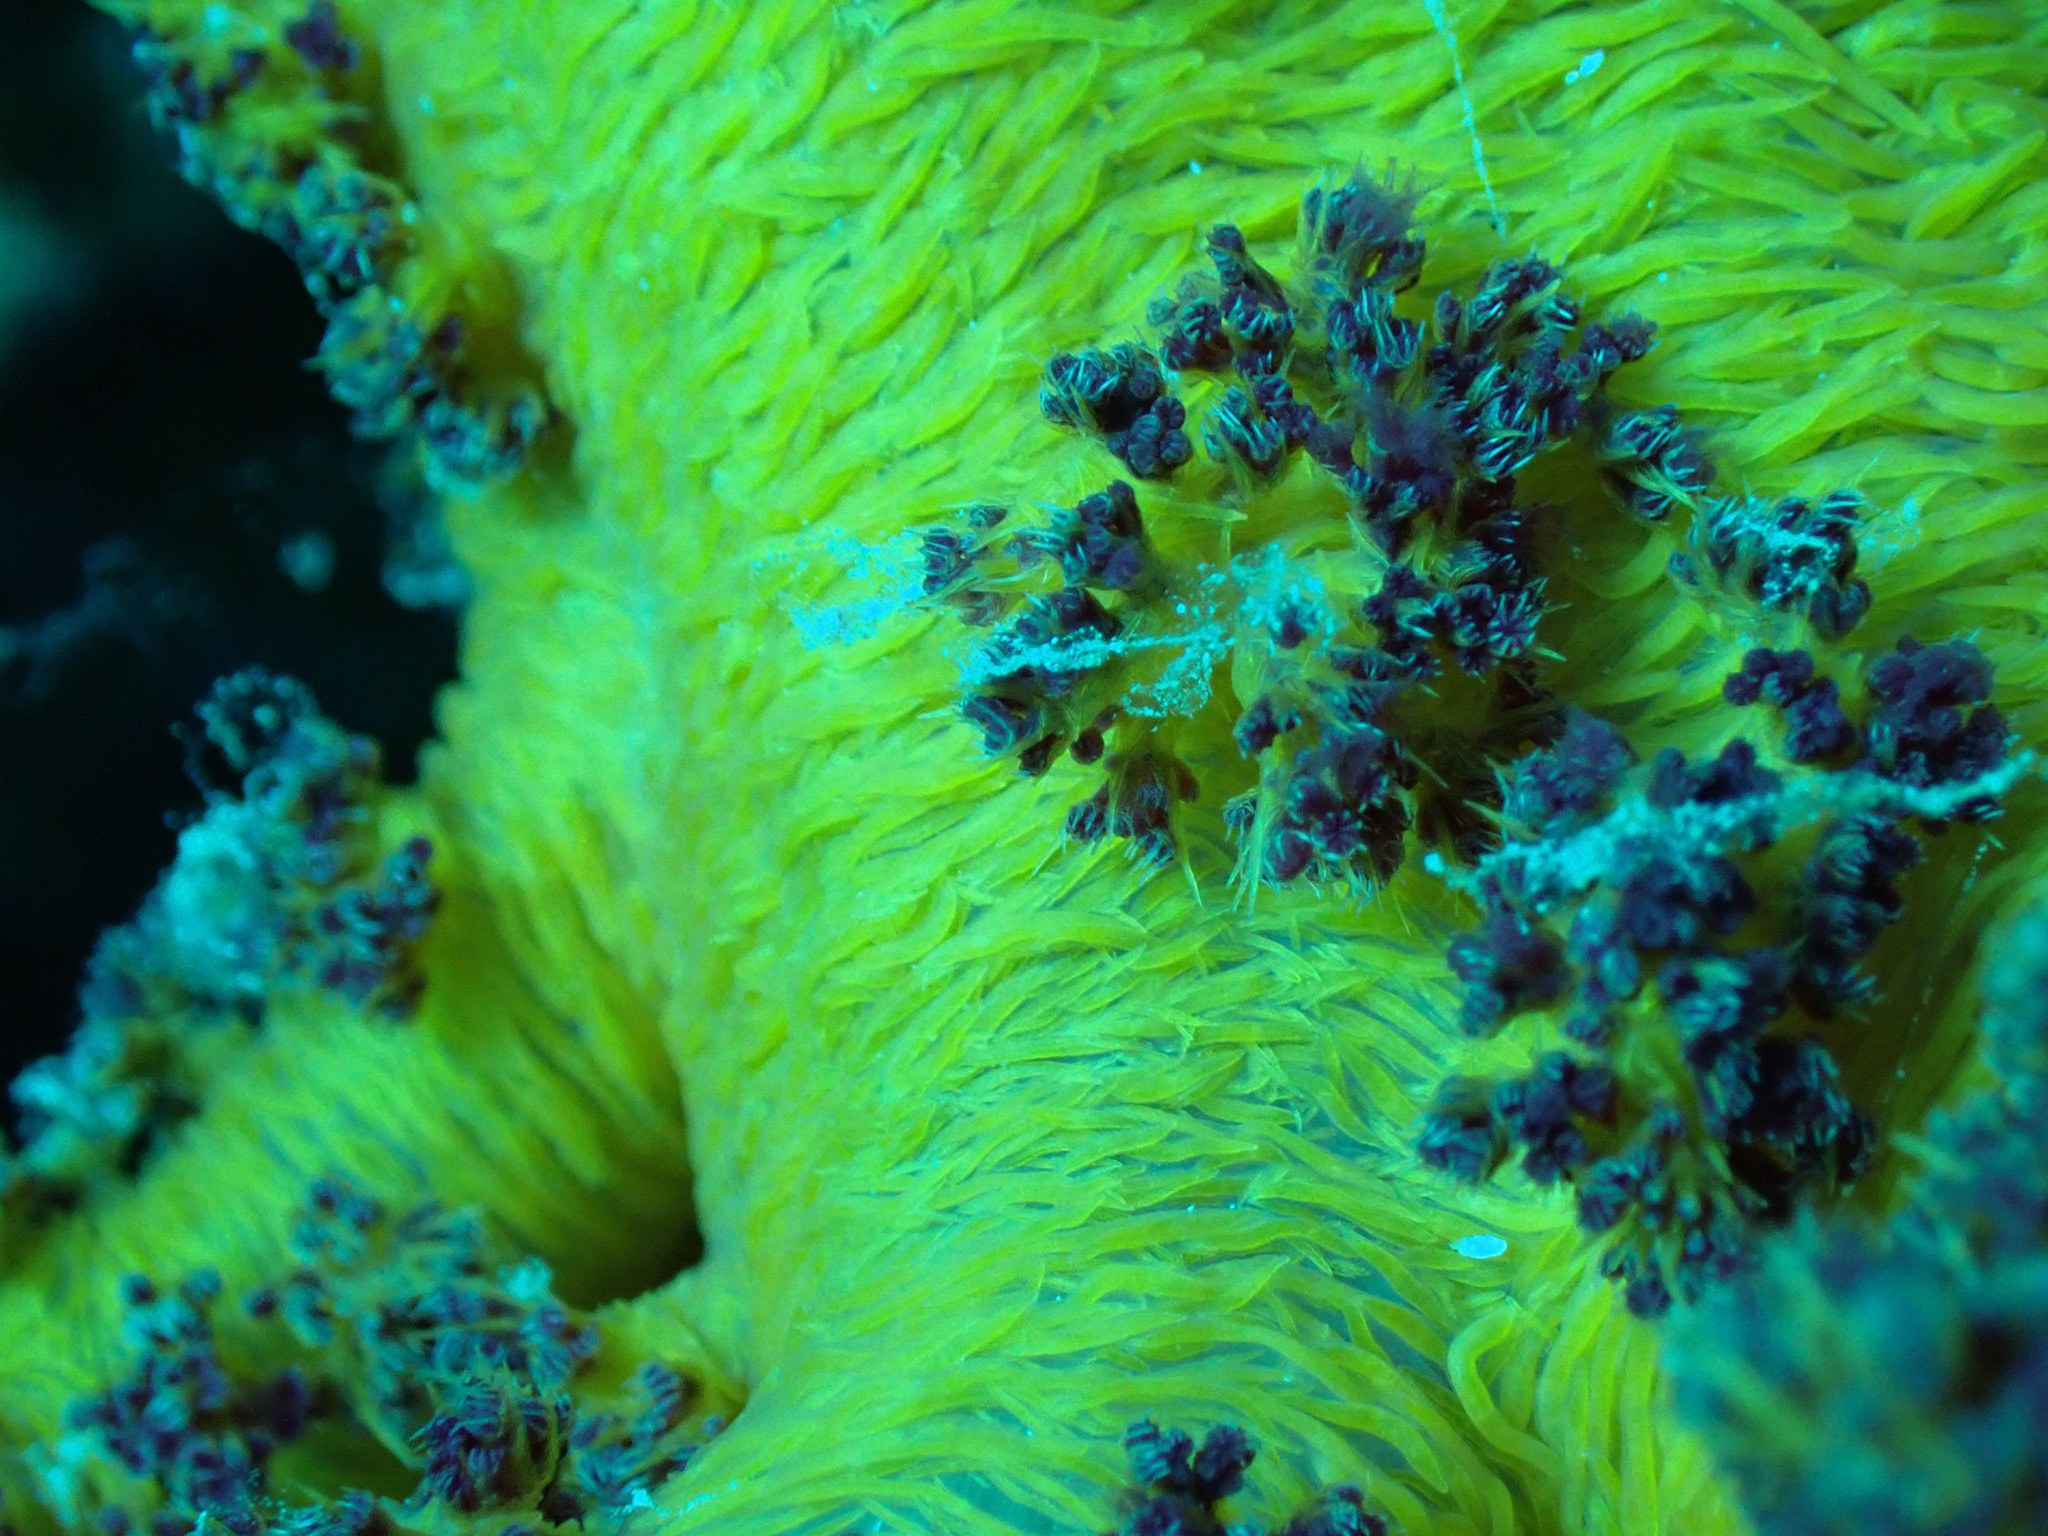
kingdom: Animalia
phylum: Cnidaria
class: Anthozoa
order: Malacalcyonacea
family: Nephtheidae
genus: Dendronephthya
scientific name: Dendronephthya hemprichi
